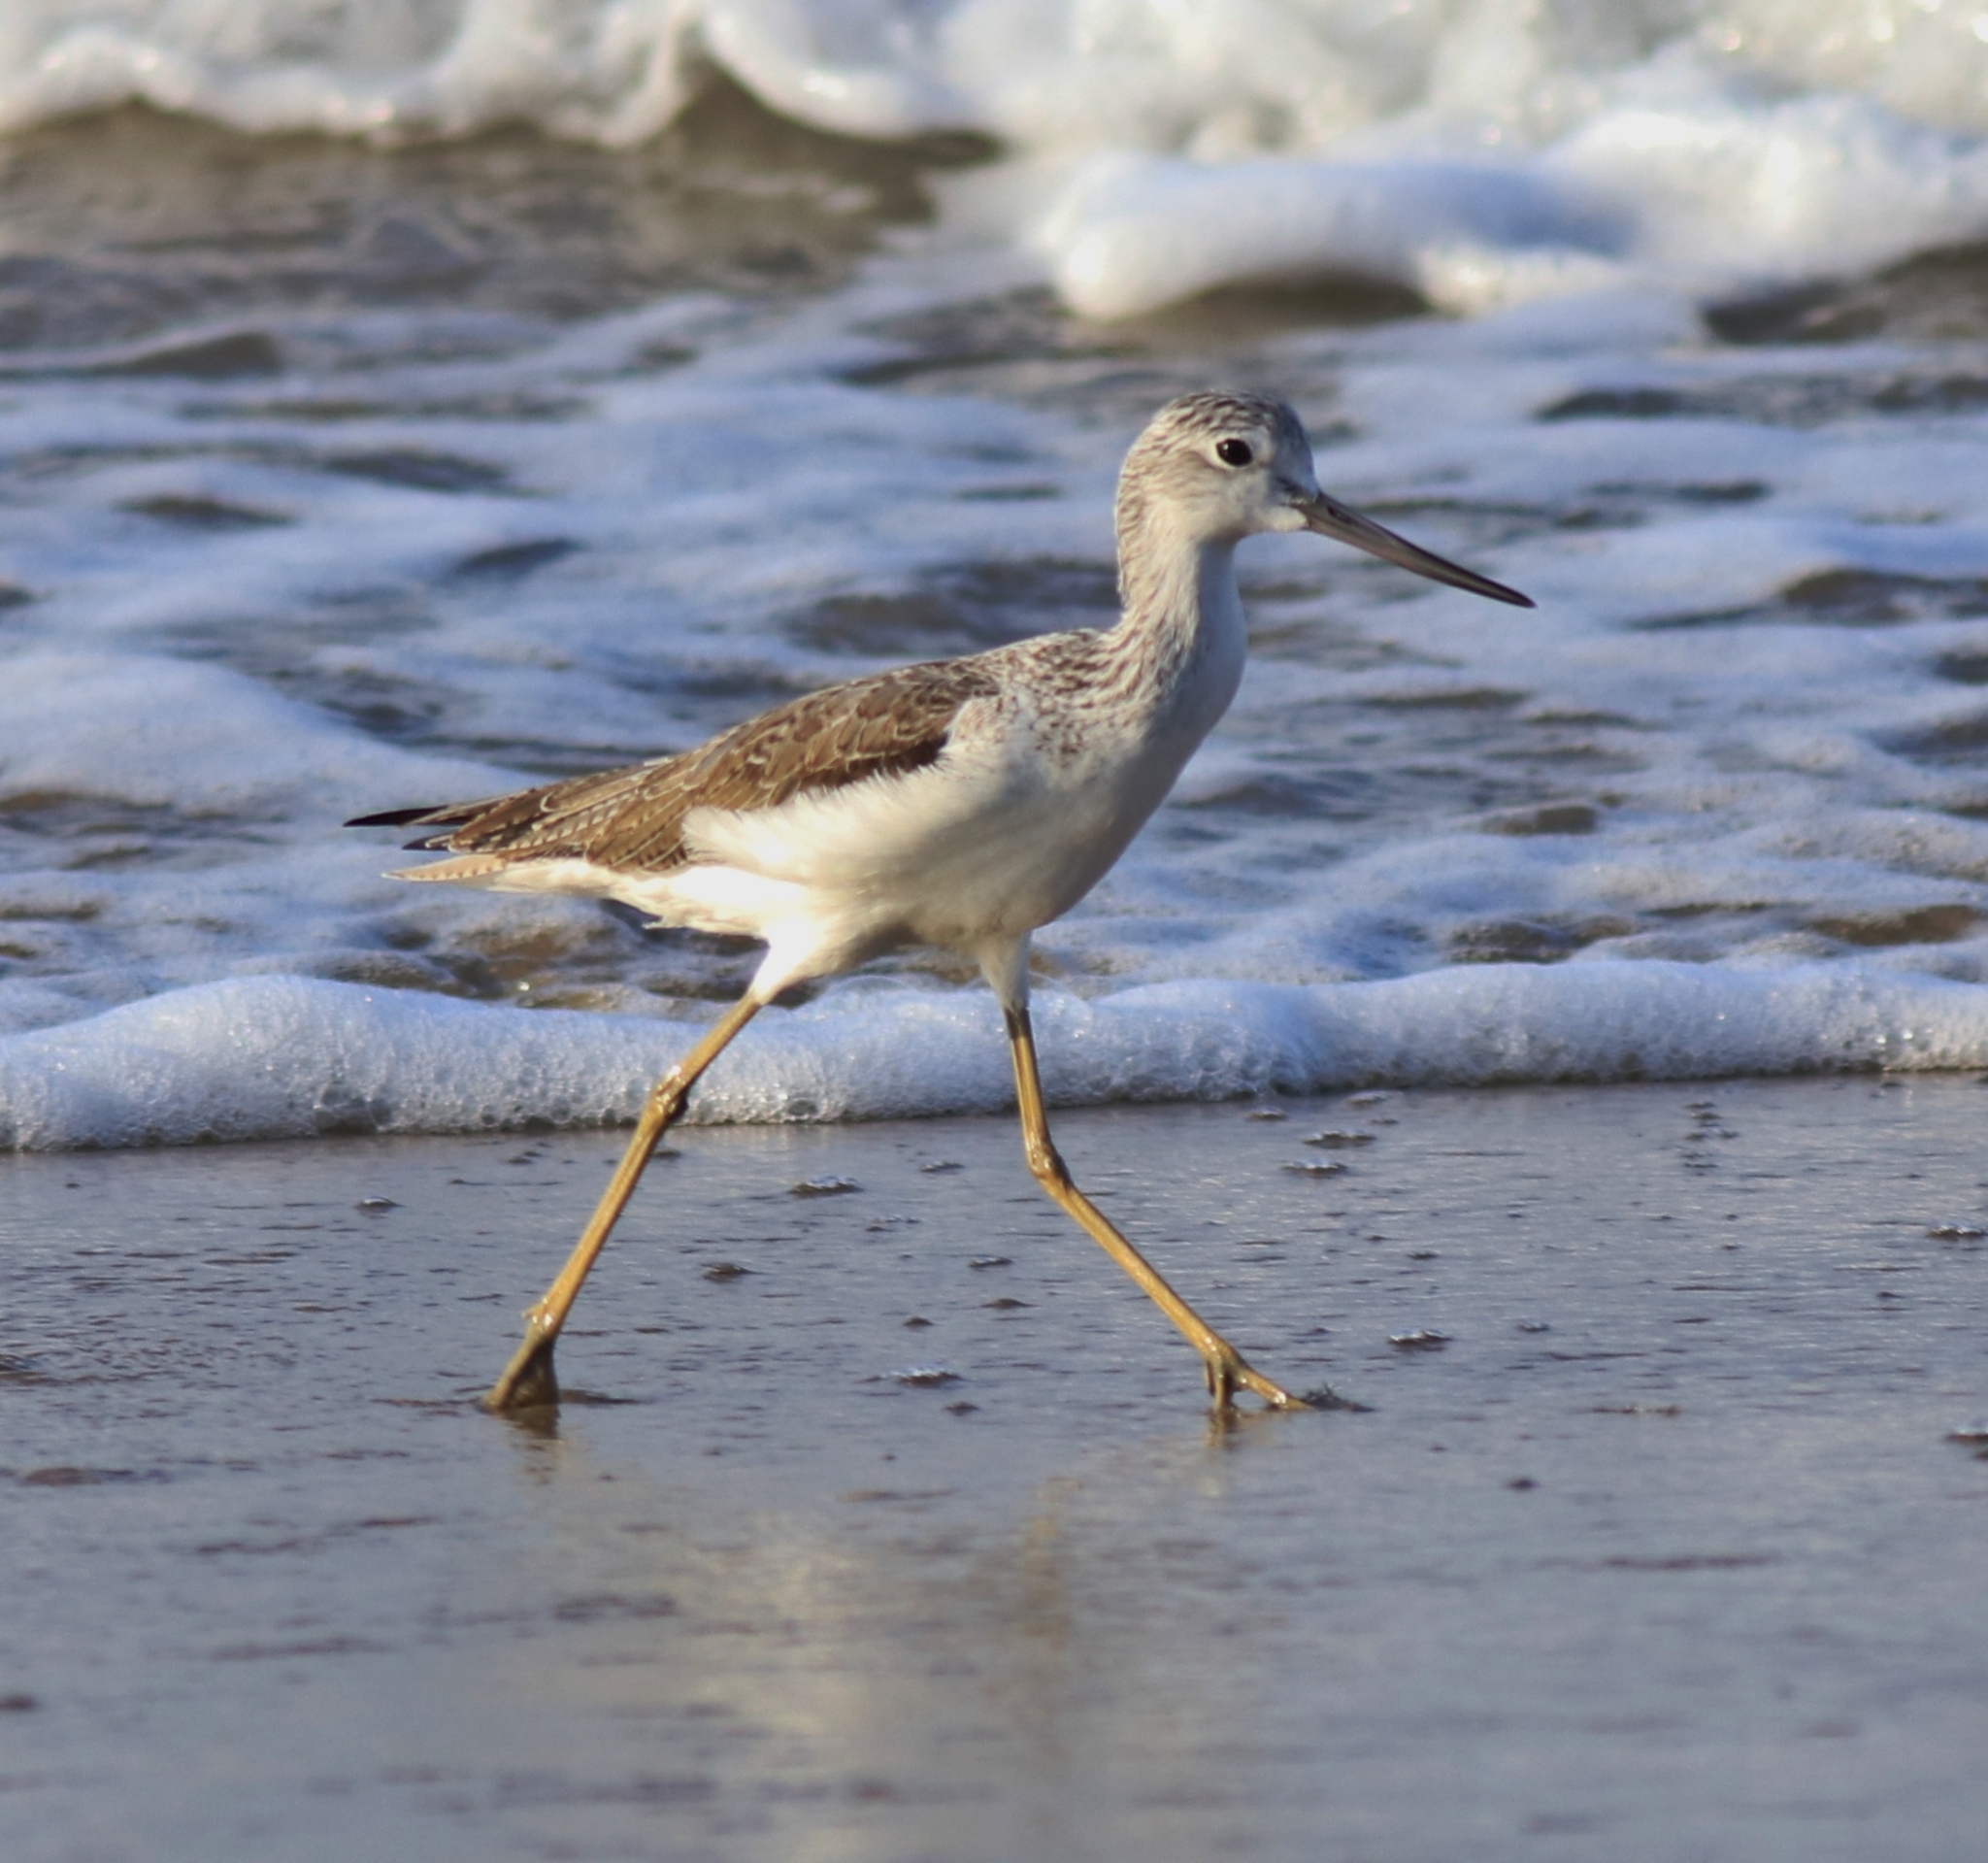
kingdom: Animalia
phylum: Chordata
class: Aves
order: Charadriiformes
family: Scolopacidae
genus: Tringa
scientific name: Tringa nebularia
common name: Common greenshank
